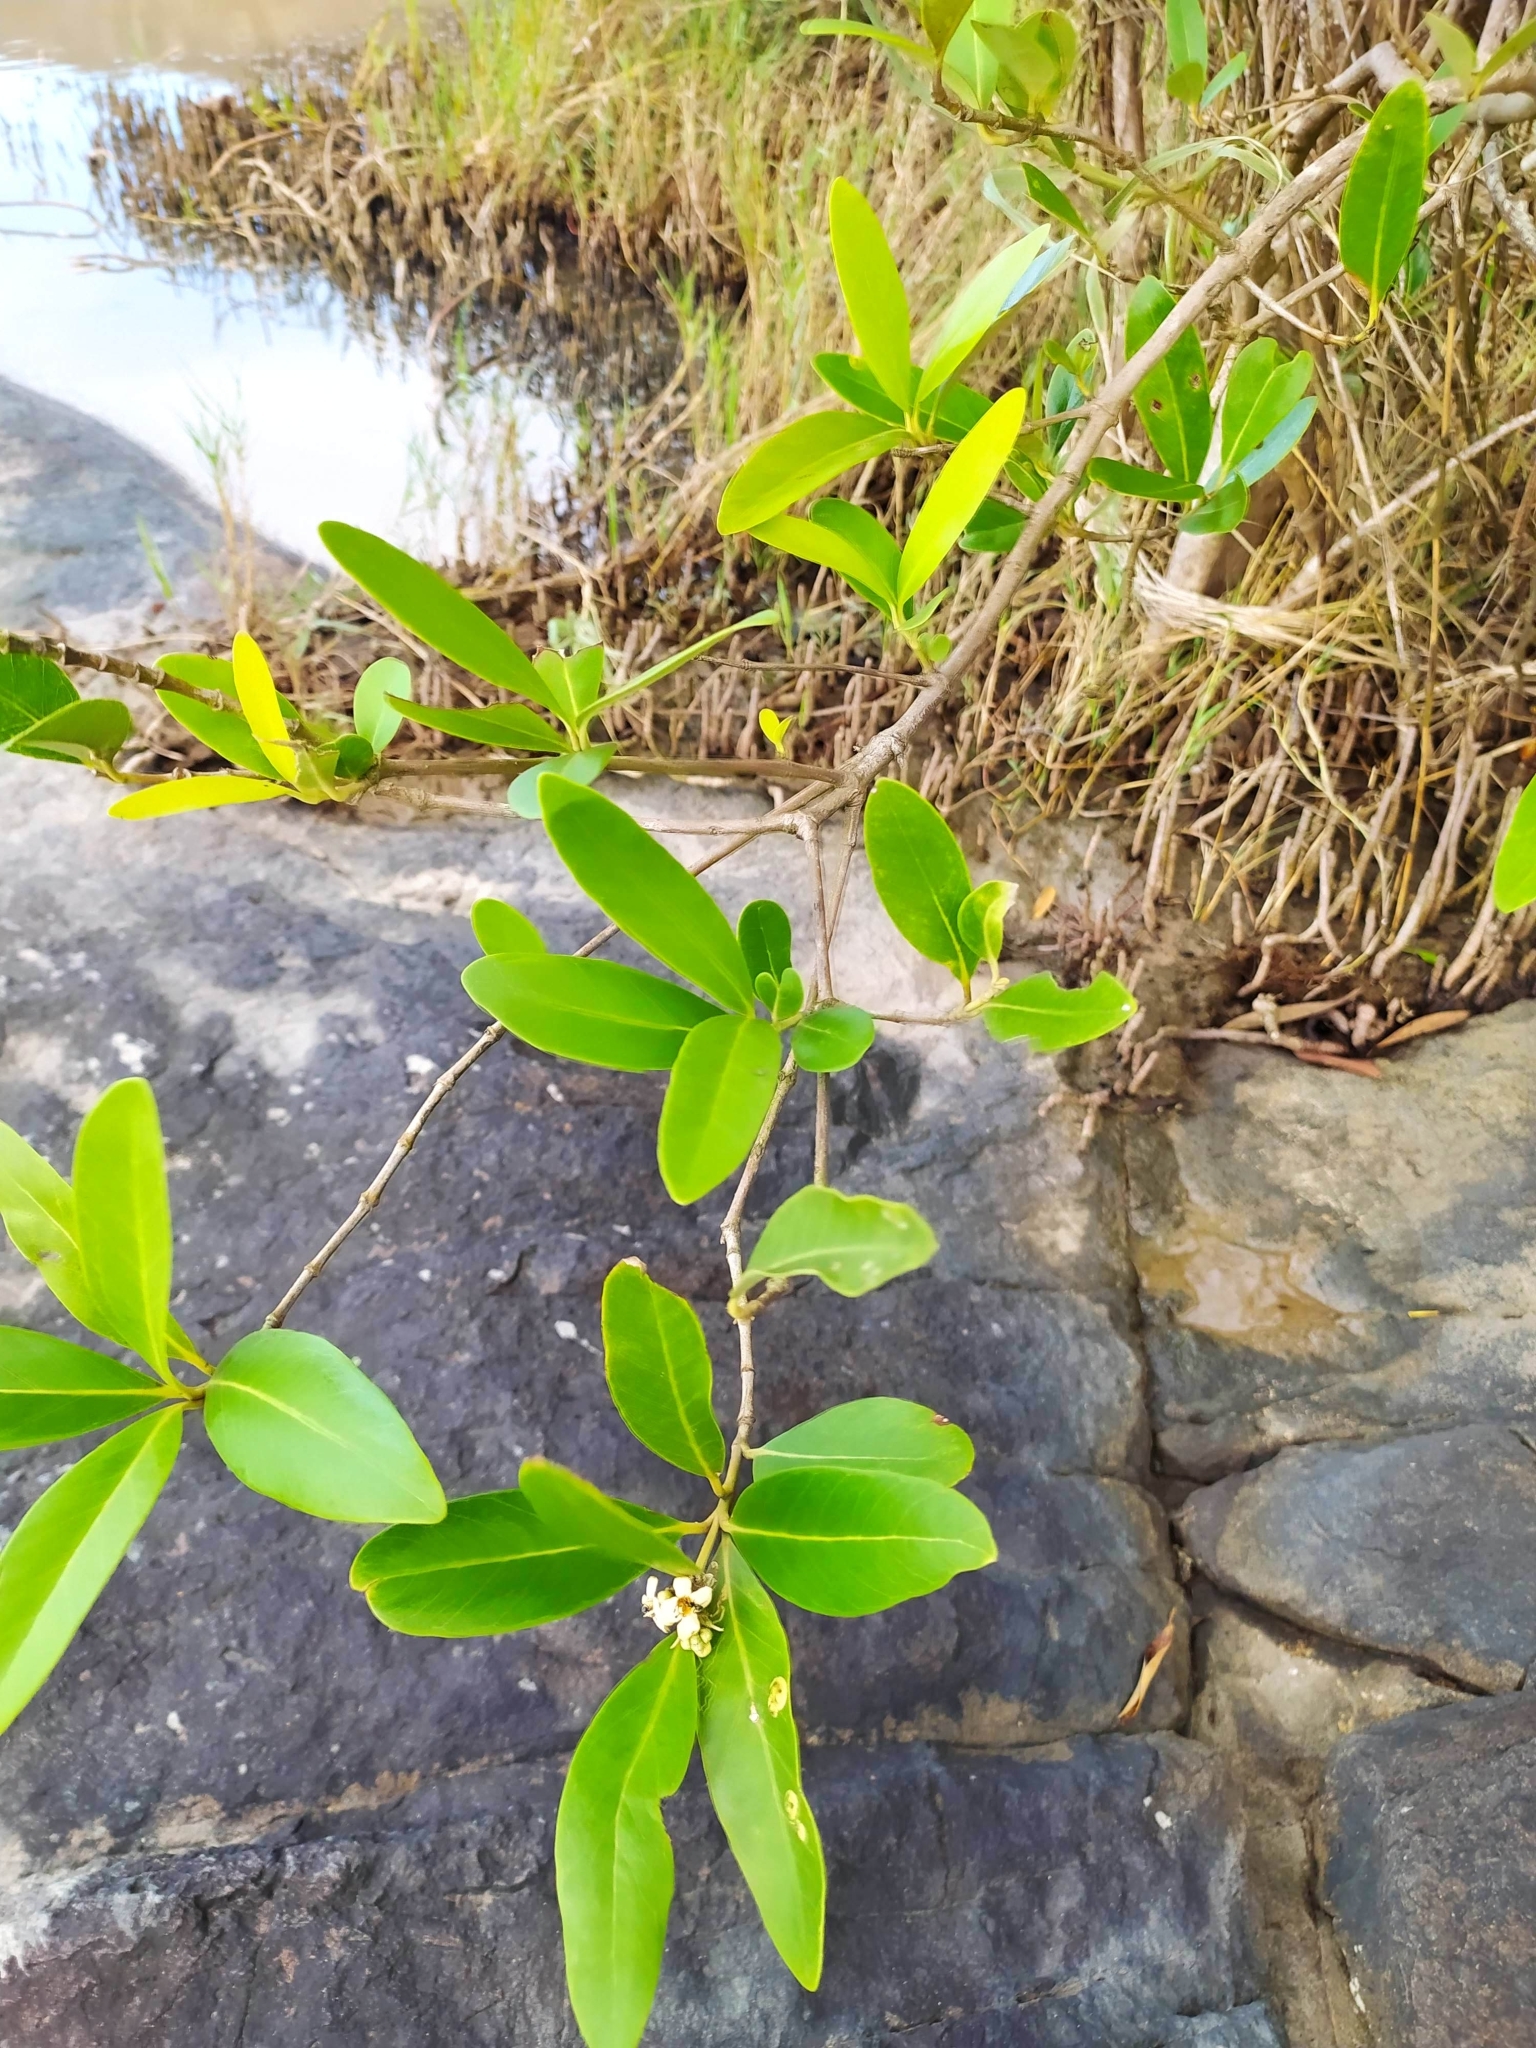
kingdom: Plantae
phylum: Tracheophyta
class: Magnoliopsida
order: Lamiales
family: Acanthaceae
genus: Avicennia
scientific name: Avicennia germinans
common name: Black mangrove
